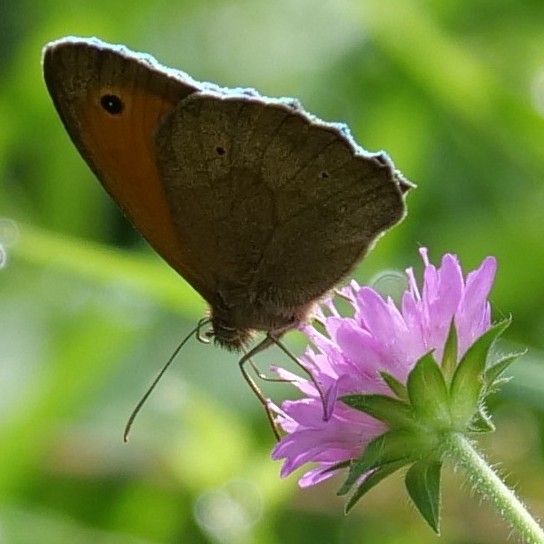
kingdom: Animalia
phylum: Arthropoda
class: Insecta
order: Lepidoptera
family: Nymphalidae
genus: Maniola
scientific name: Maniola jurtina
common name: Meadow brown
